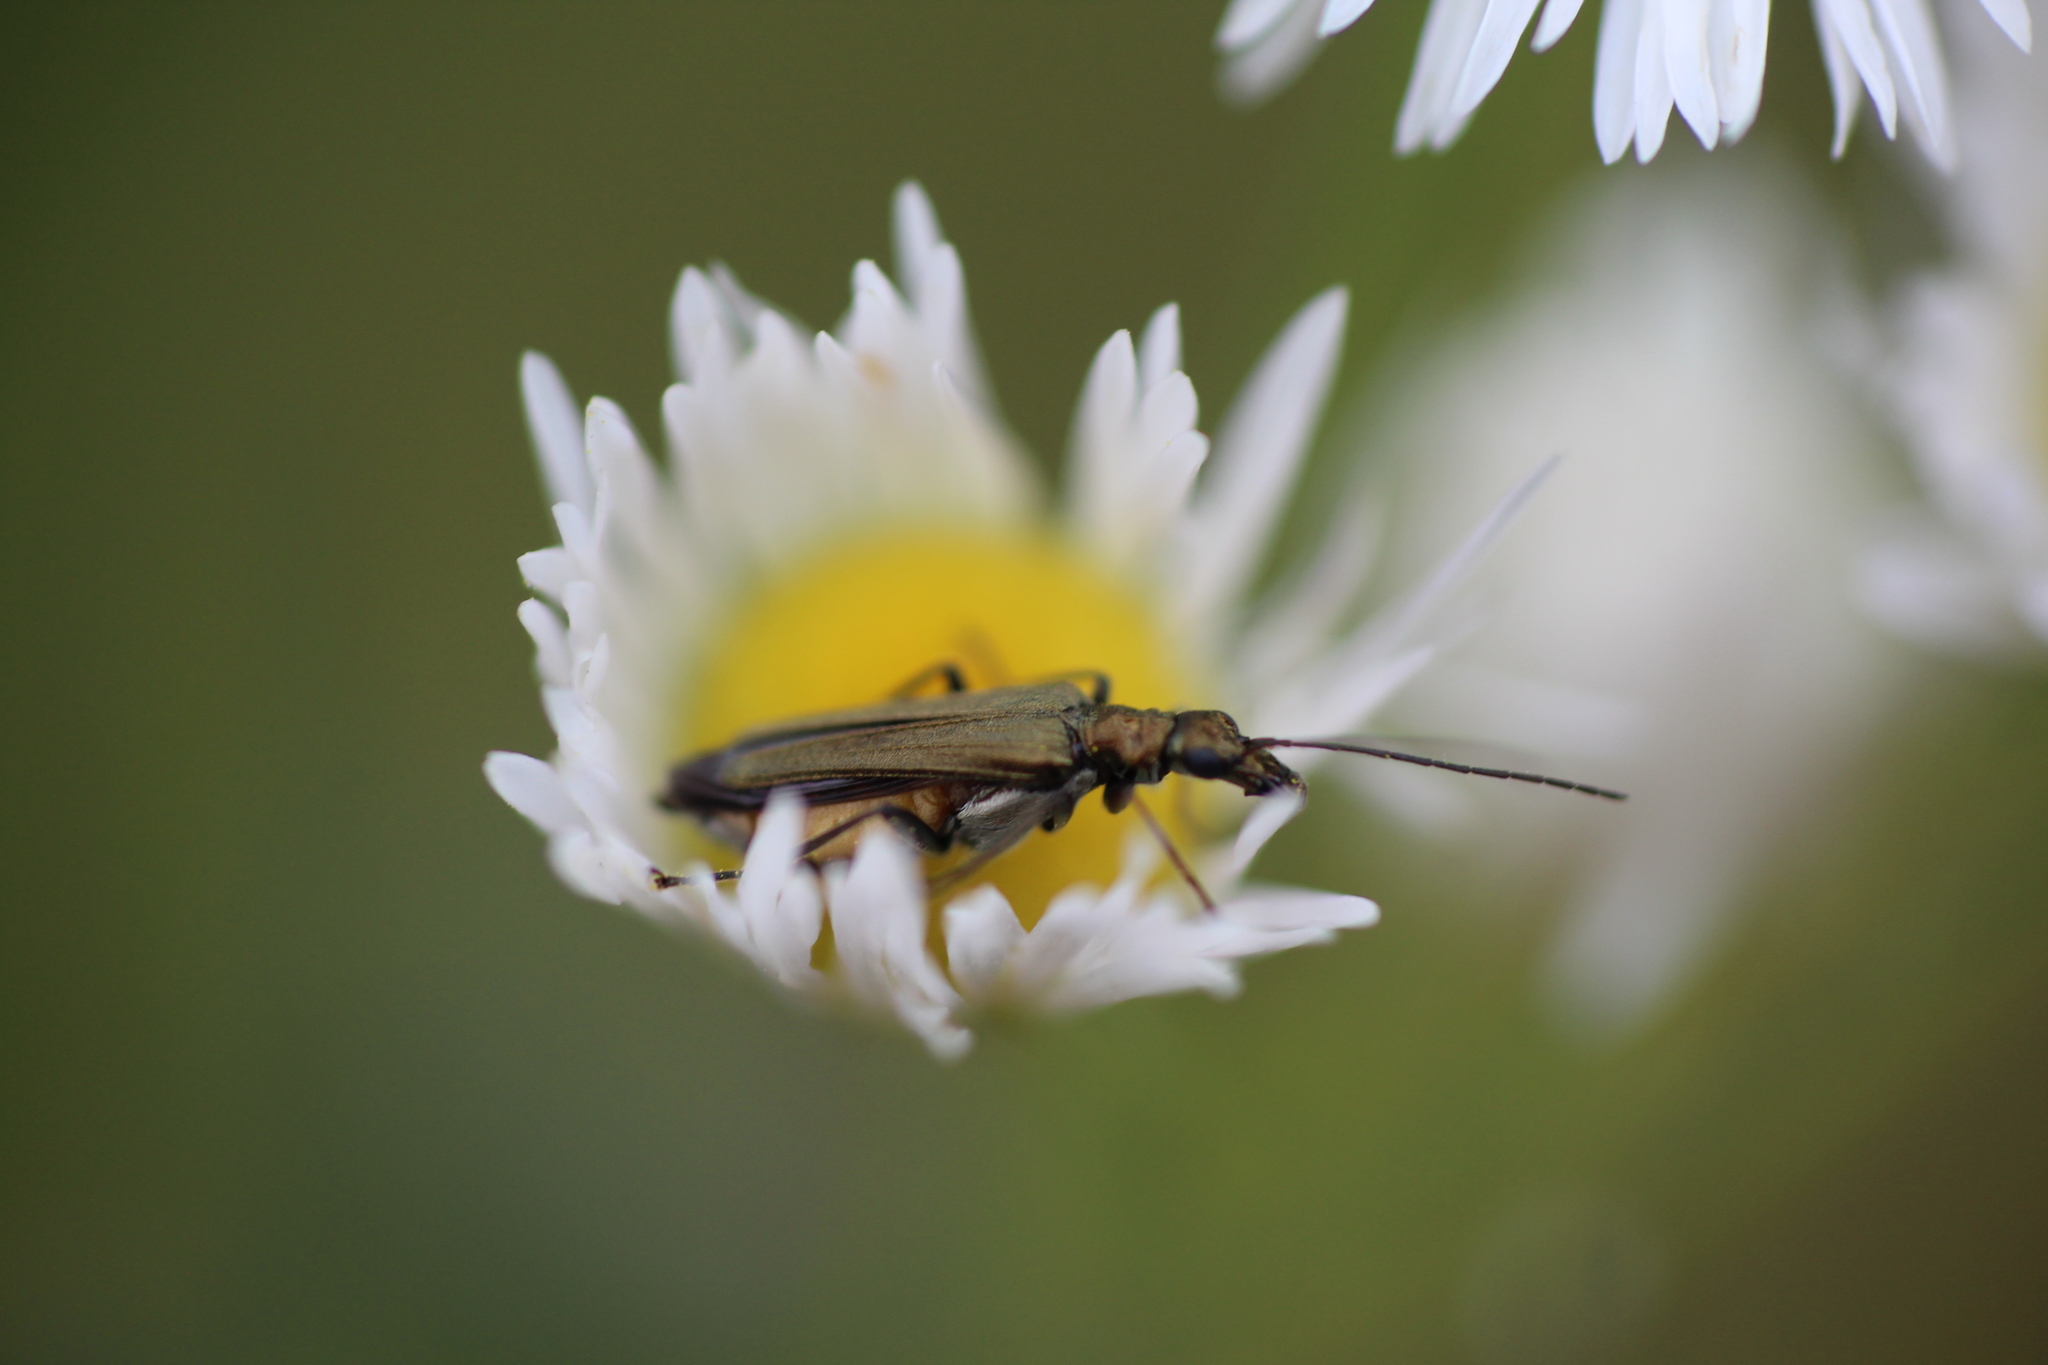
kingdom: Animalia
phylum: Arthropoda
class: Insecta
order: Coleoptera
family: Oedemeridae
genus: Oedemera
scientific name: Oedemera flavipes
